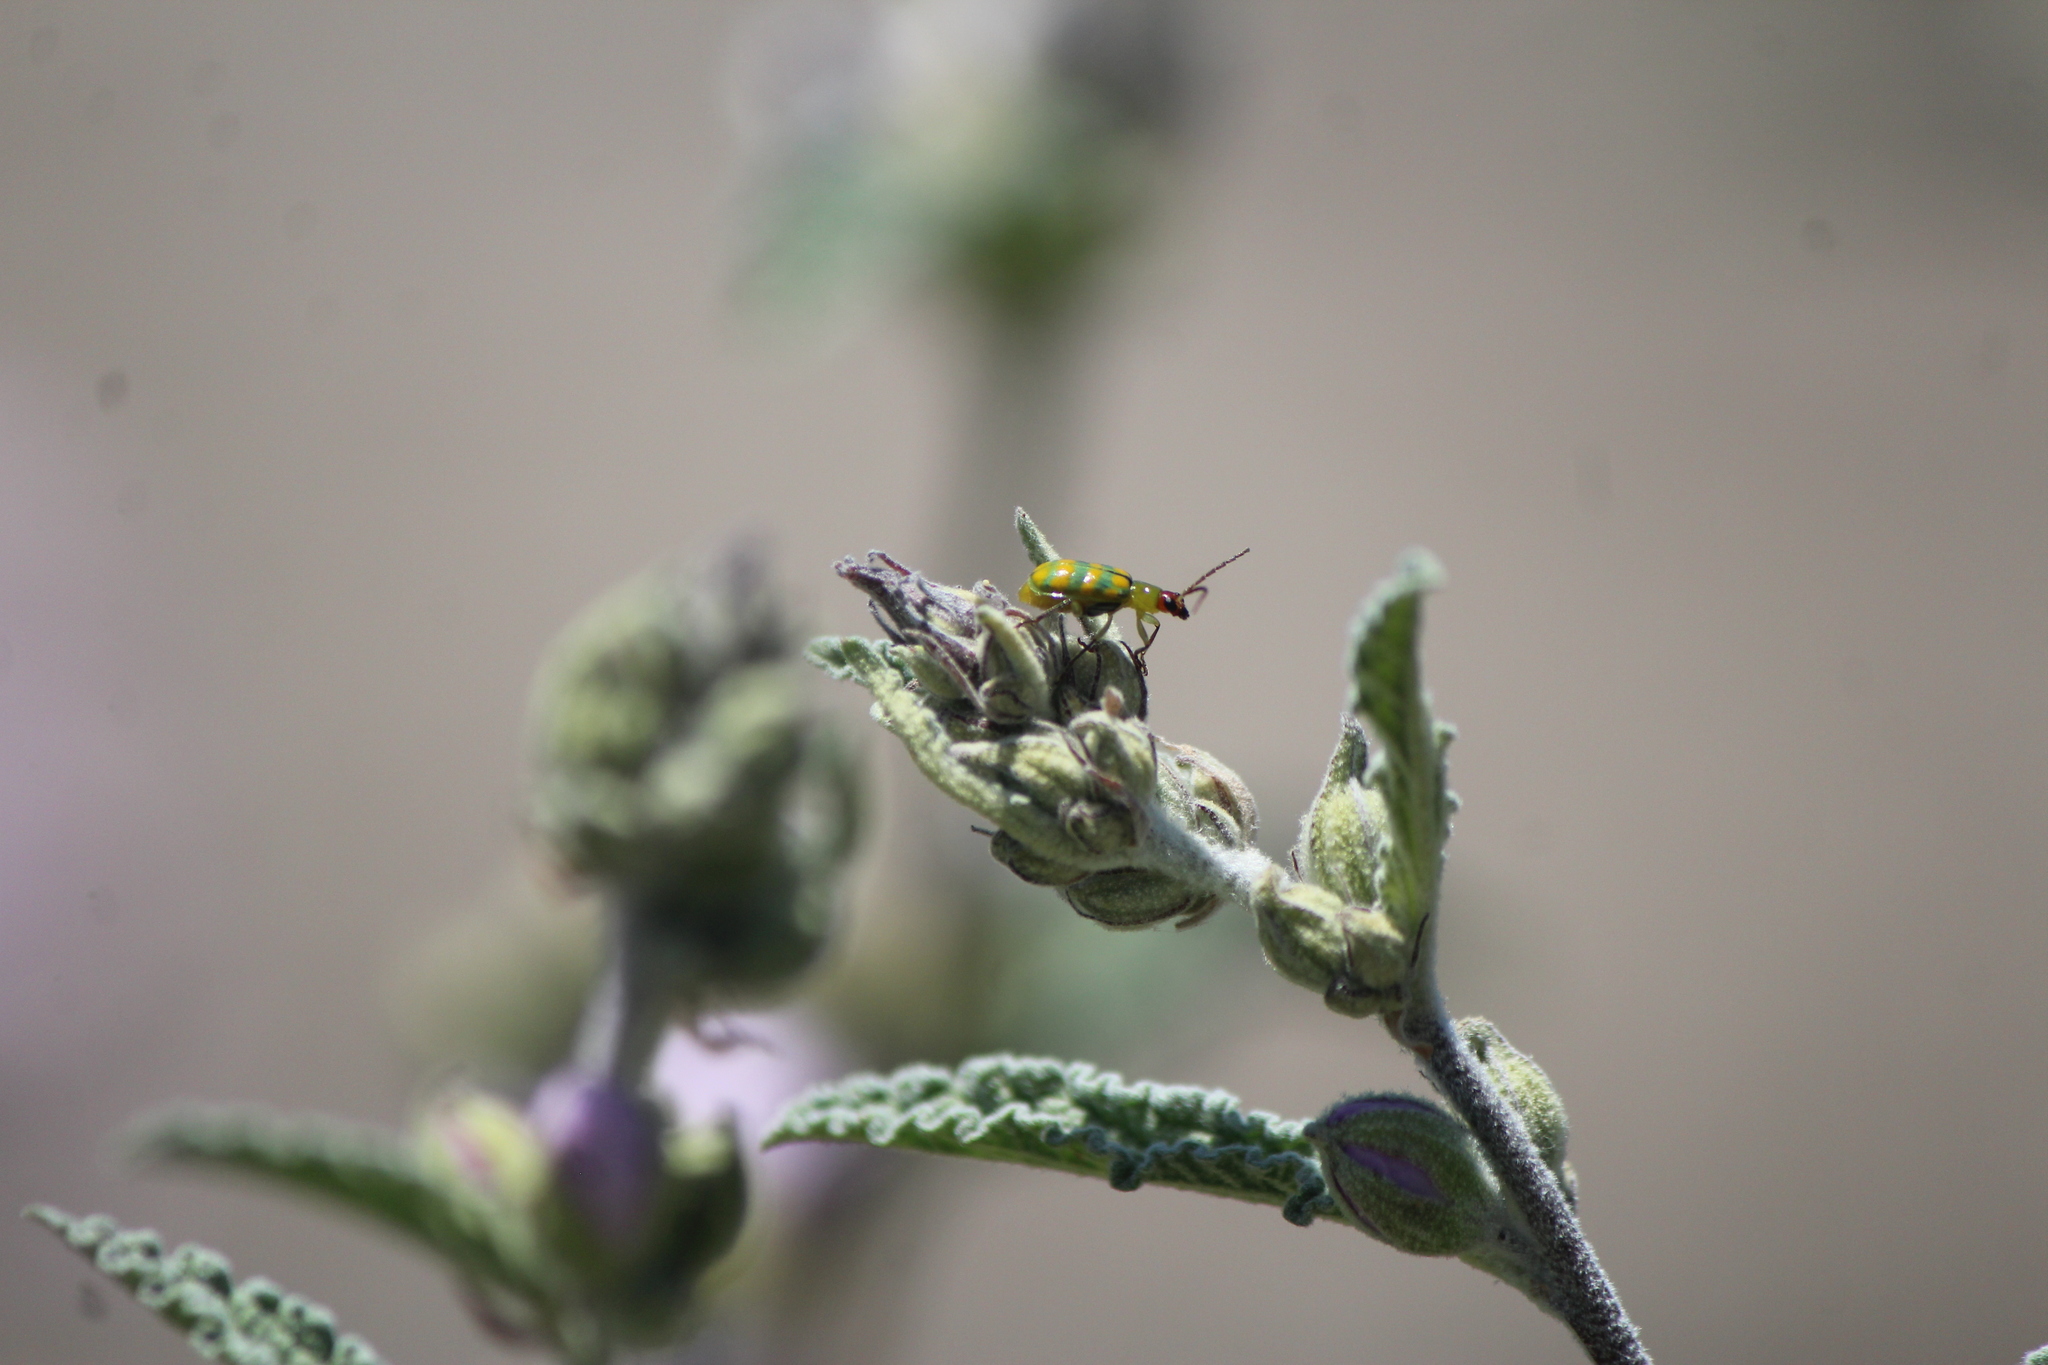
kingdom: Animalia
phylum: Arthropoda
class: Insecta
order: Coleoptera
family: Chrysomelidae
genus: Diabrotica
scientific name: Diabrotica balteata
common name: Leaf beetle
